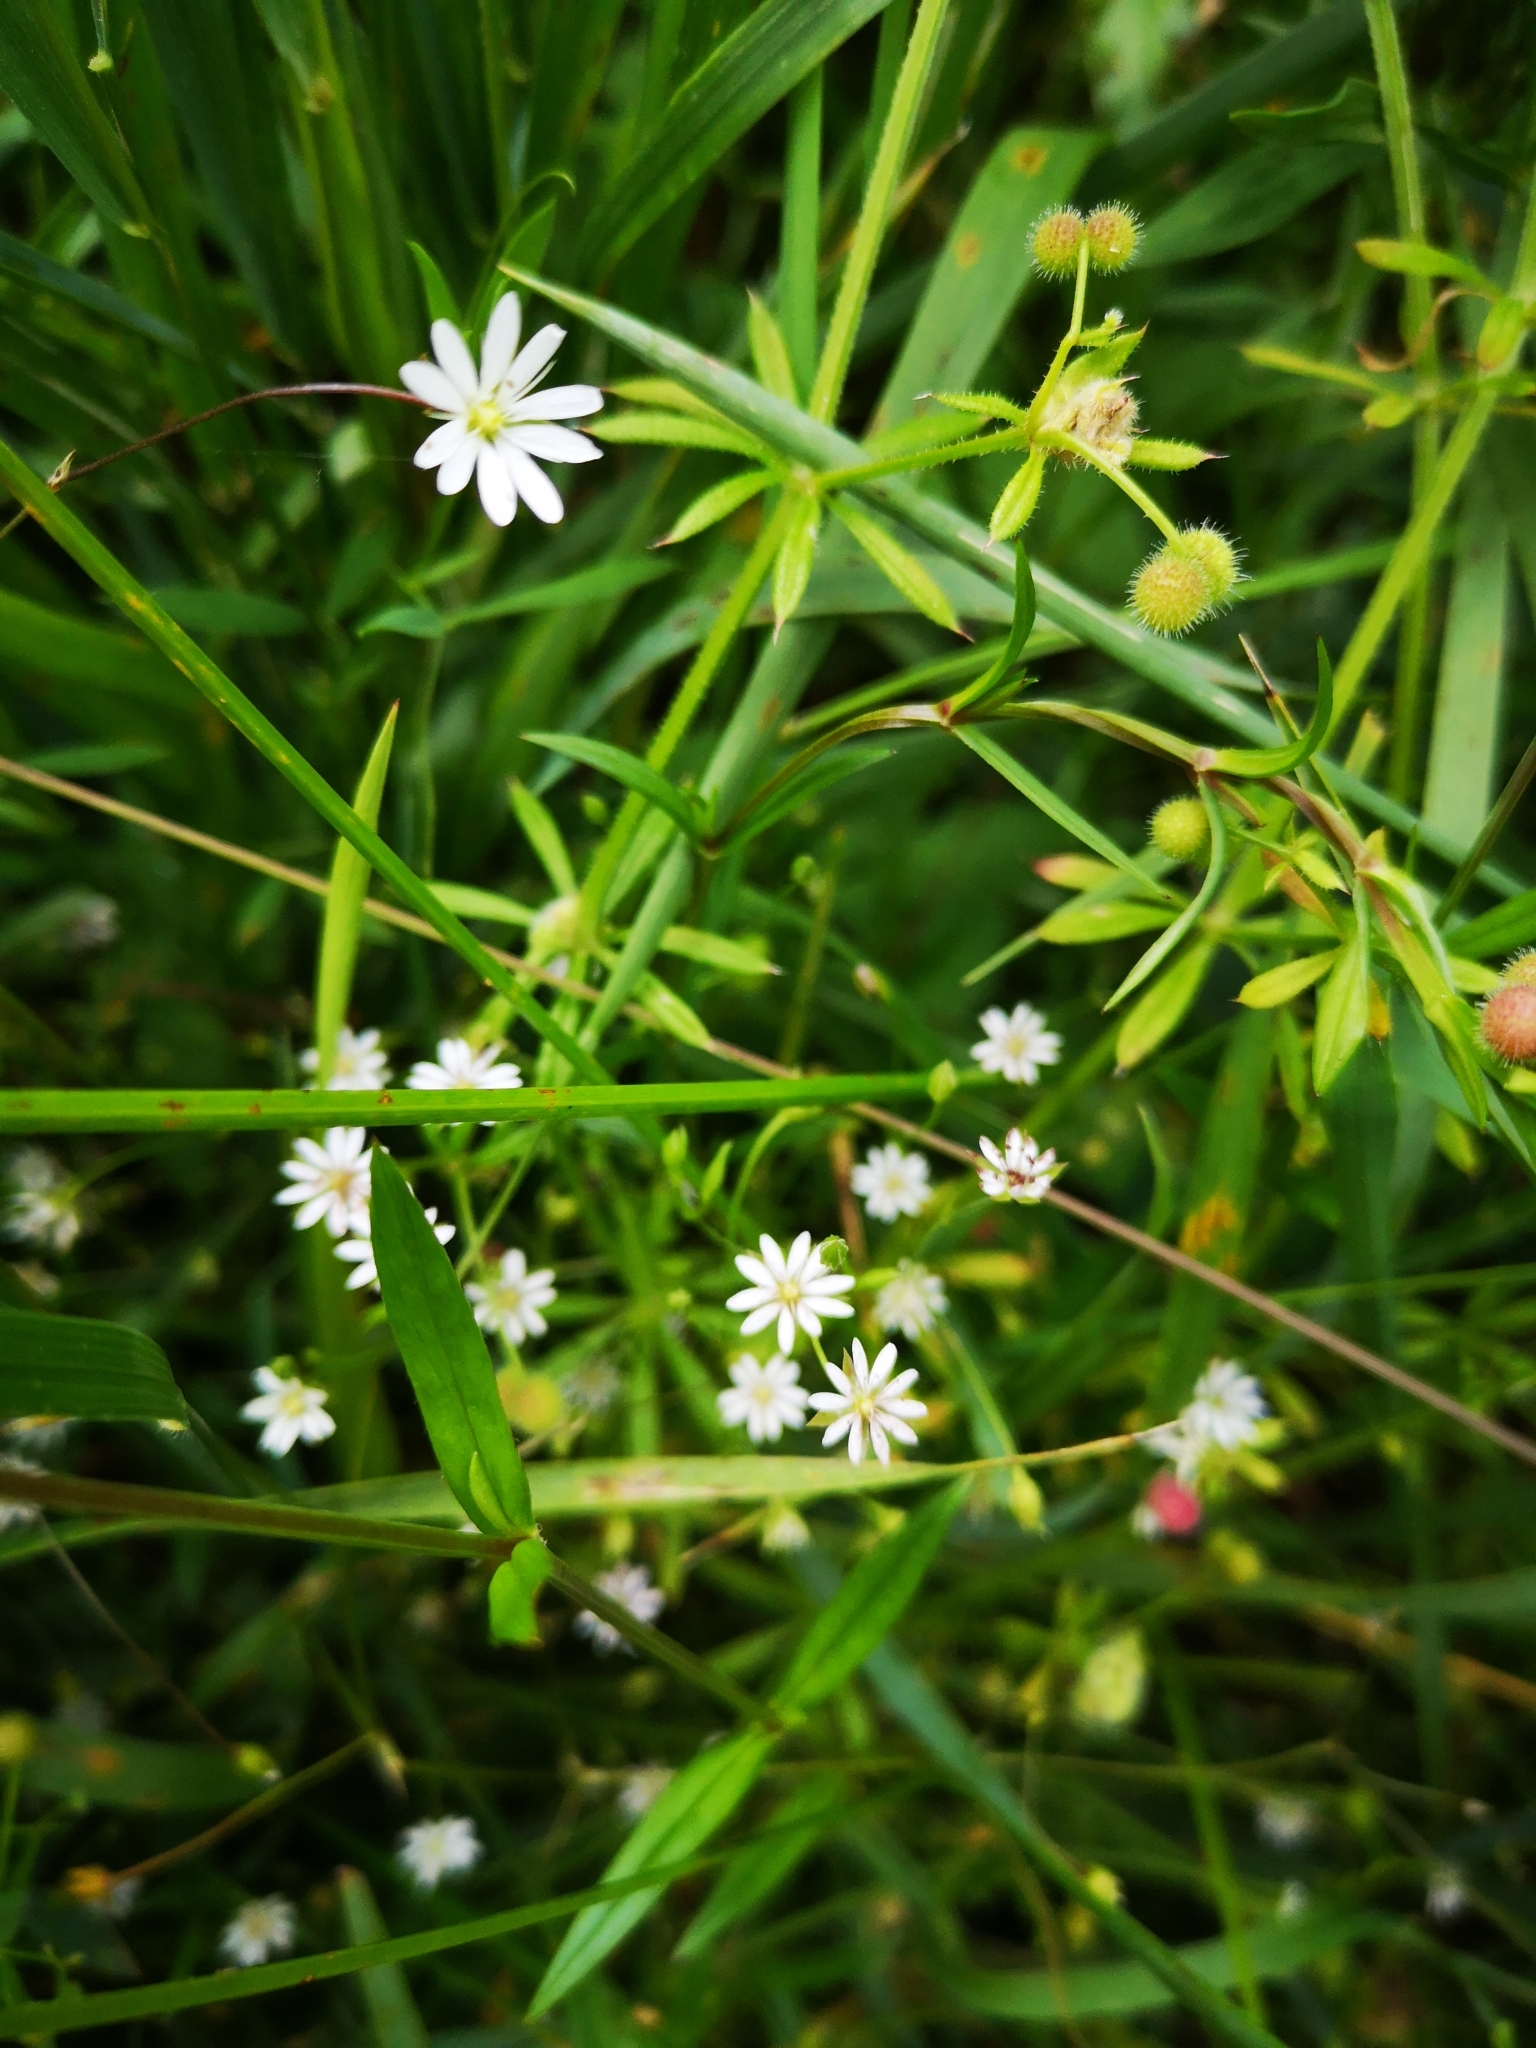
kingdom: Plantae
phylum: Tracheophyta
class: Magnoliopsida
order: Caryophyllales
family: Caryophyllaceae
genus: Stellaria
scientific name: Stellaria graminea
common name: Grass-like starwort
